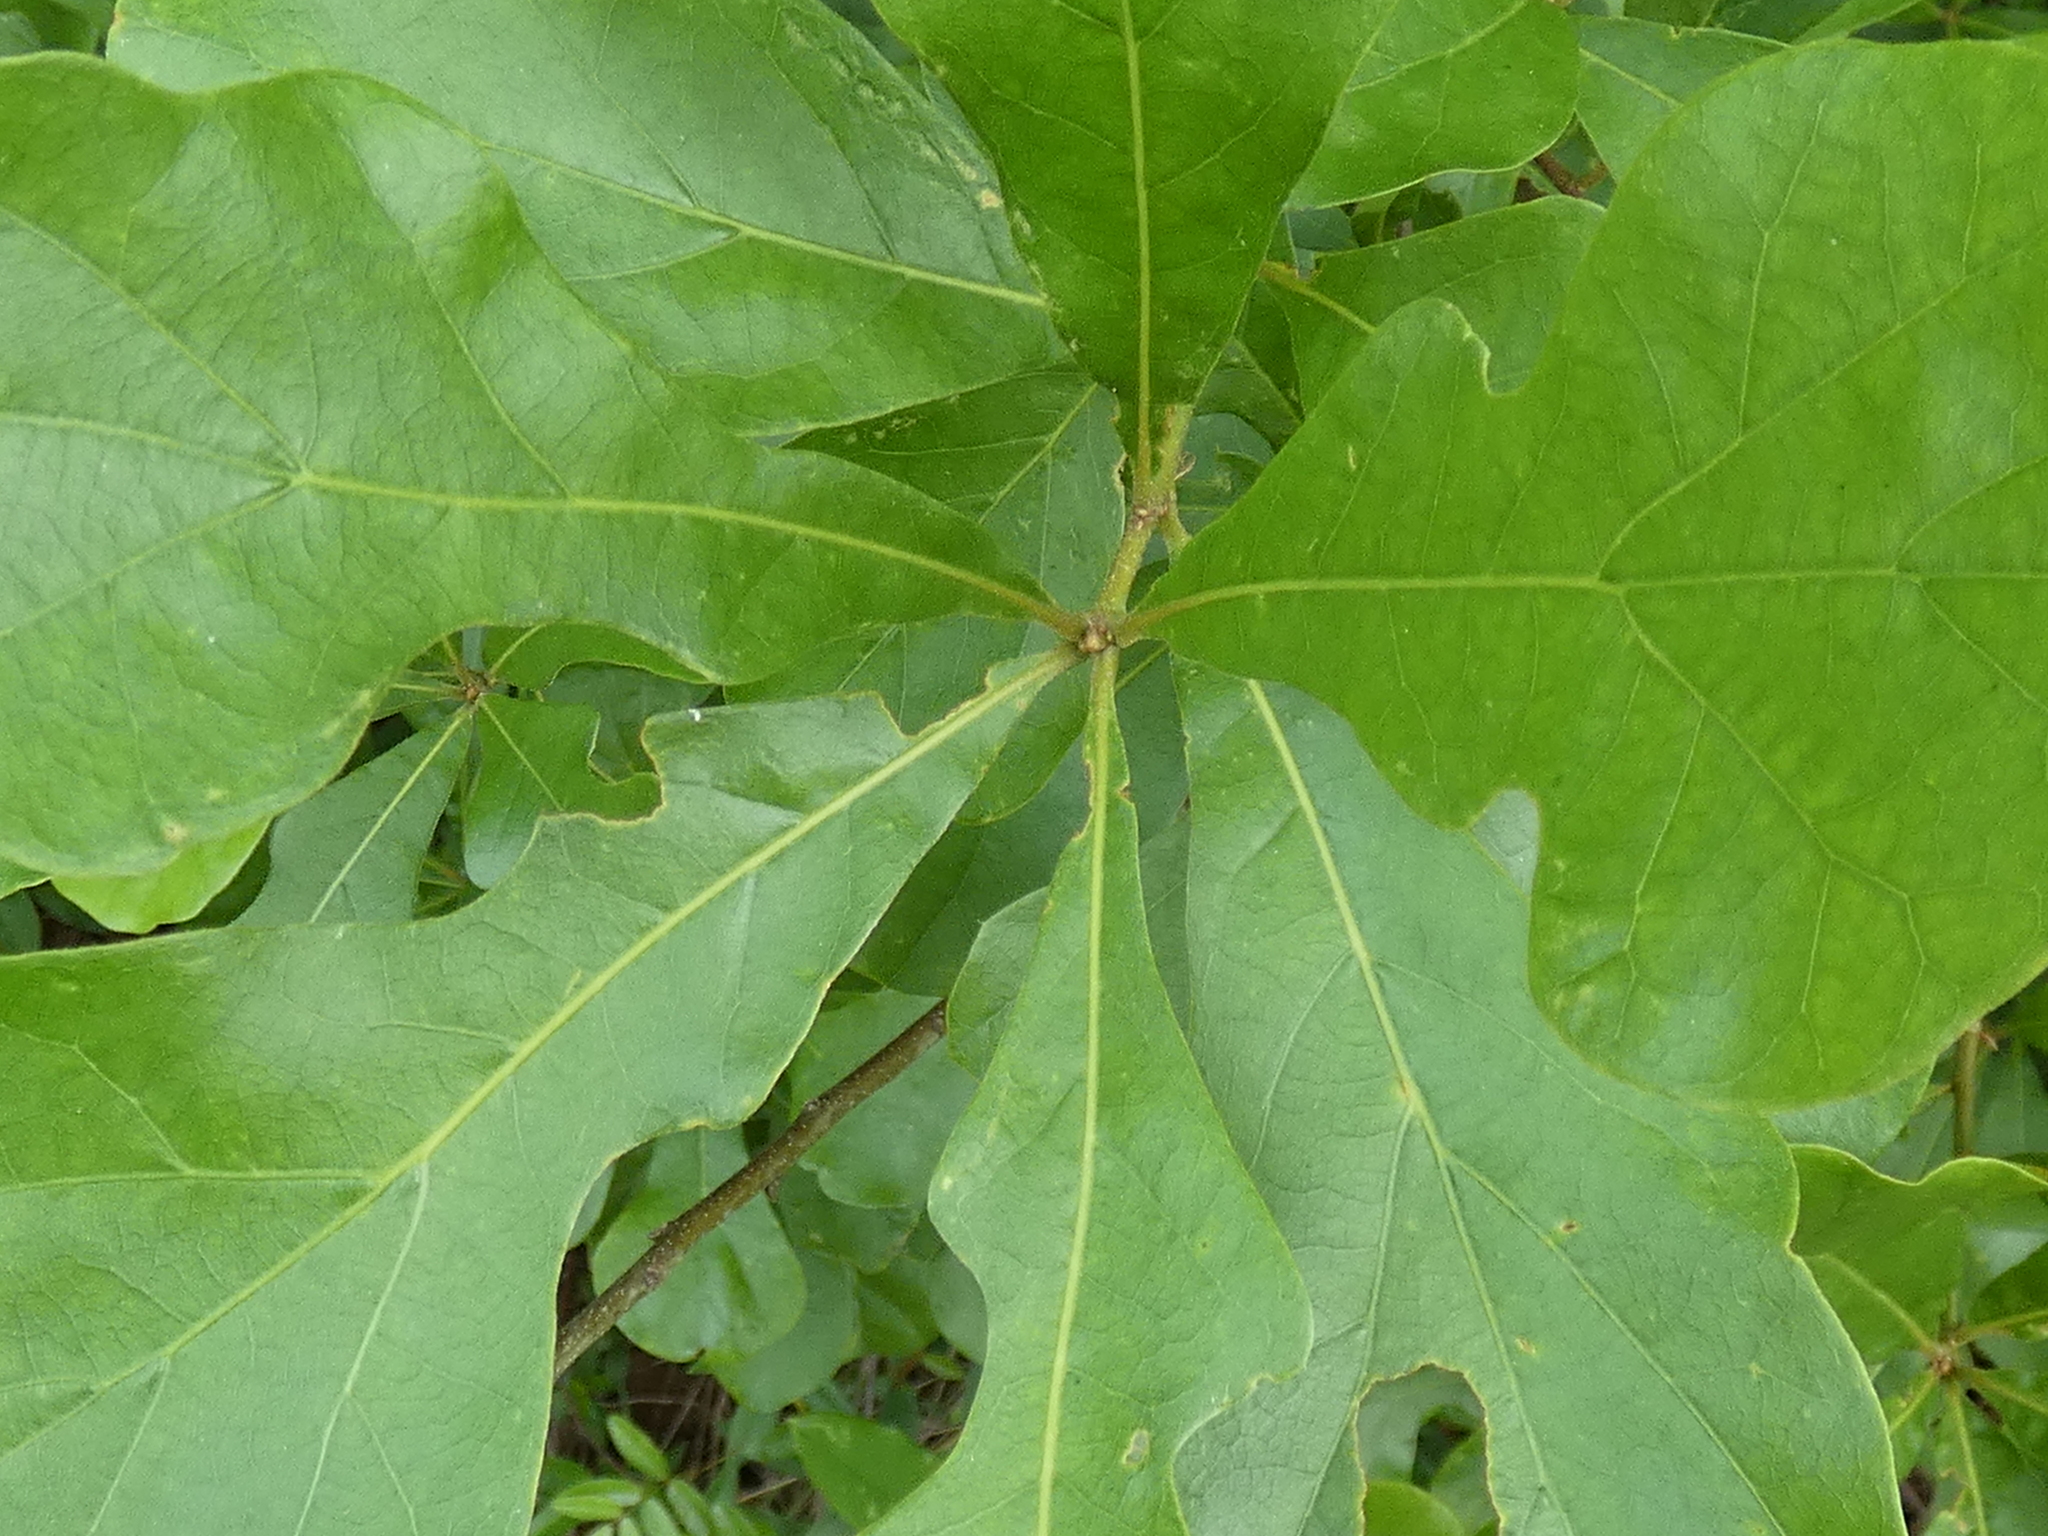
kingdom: Plantae
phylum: Tracheophyta
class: Magnoliopsida
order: Fagales
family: Fagaceae
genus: Quercus
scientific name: Quercus nigra
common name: Water oak
